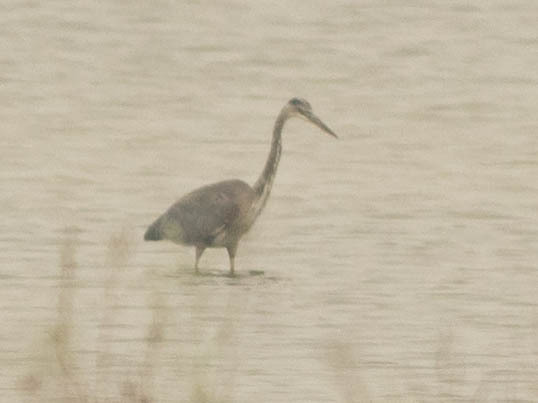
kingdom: Animalia
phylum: Chordata
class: Aves
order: Pelecaniformes
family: Ardeidae
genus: Ardea
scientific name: Ardea herodias
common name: Great blue heron
